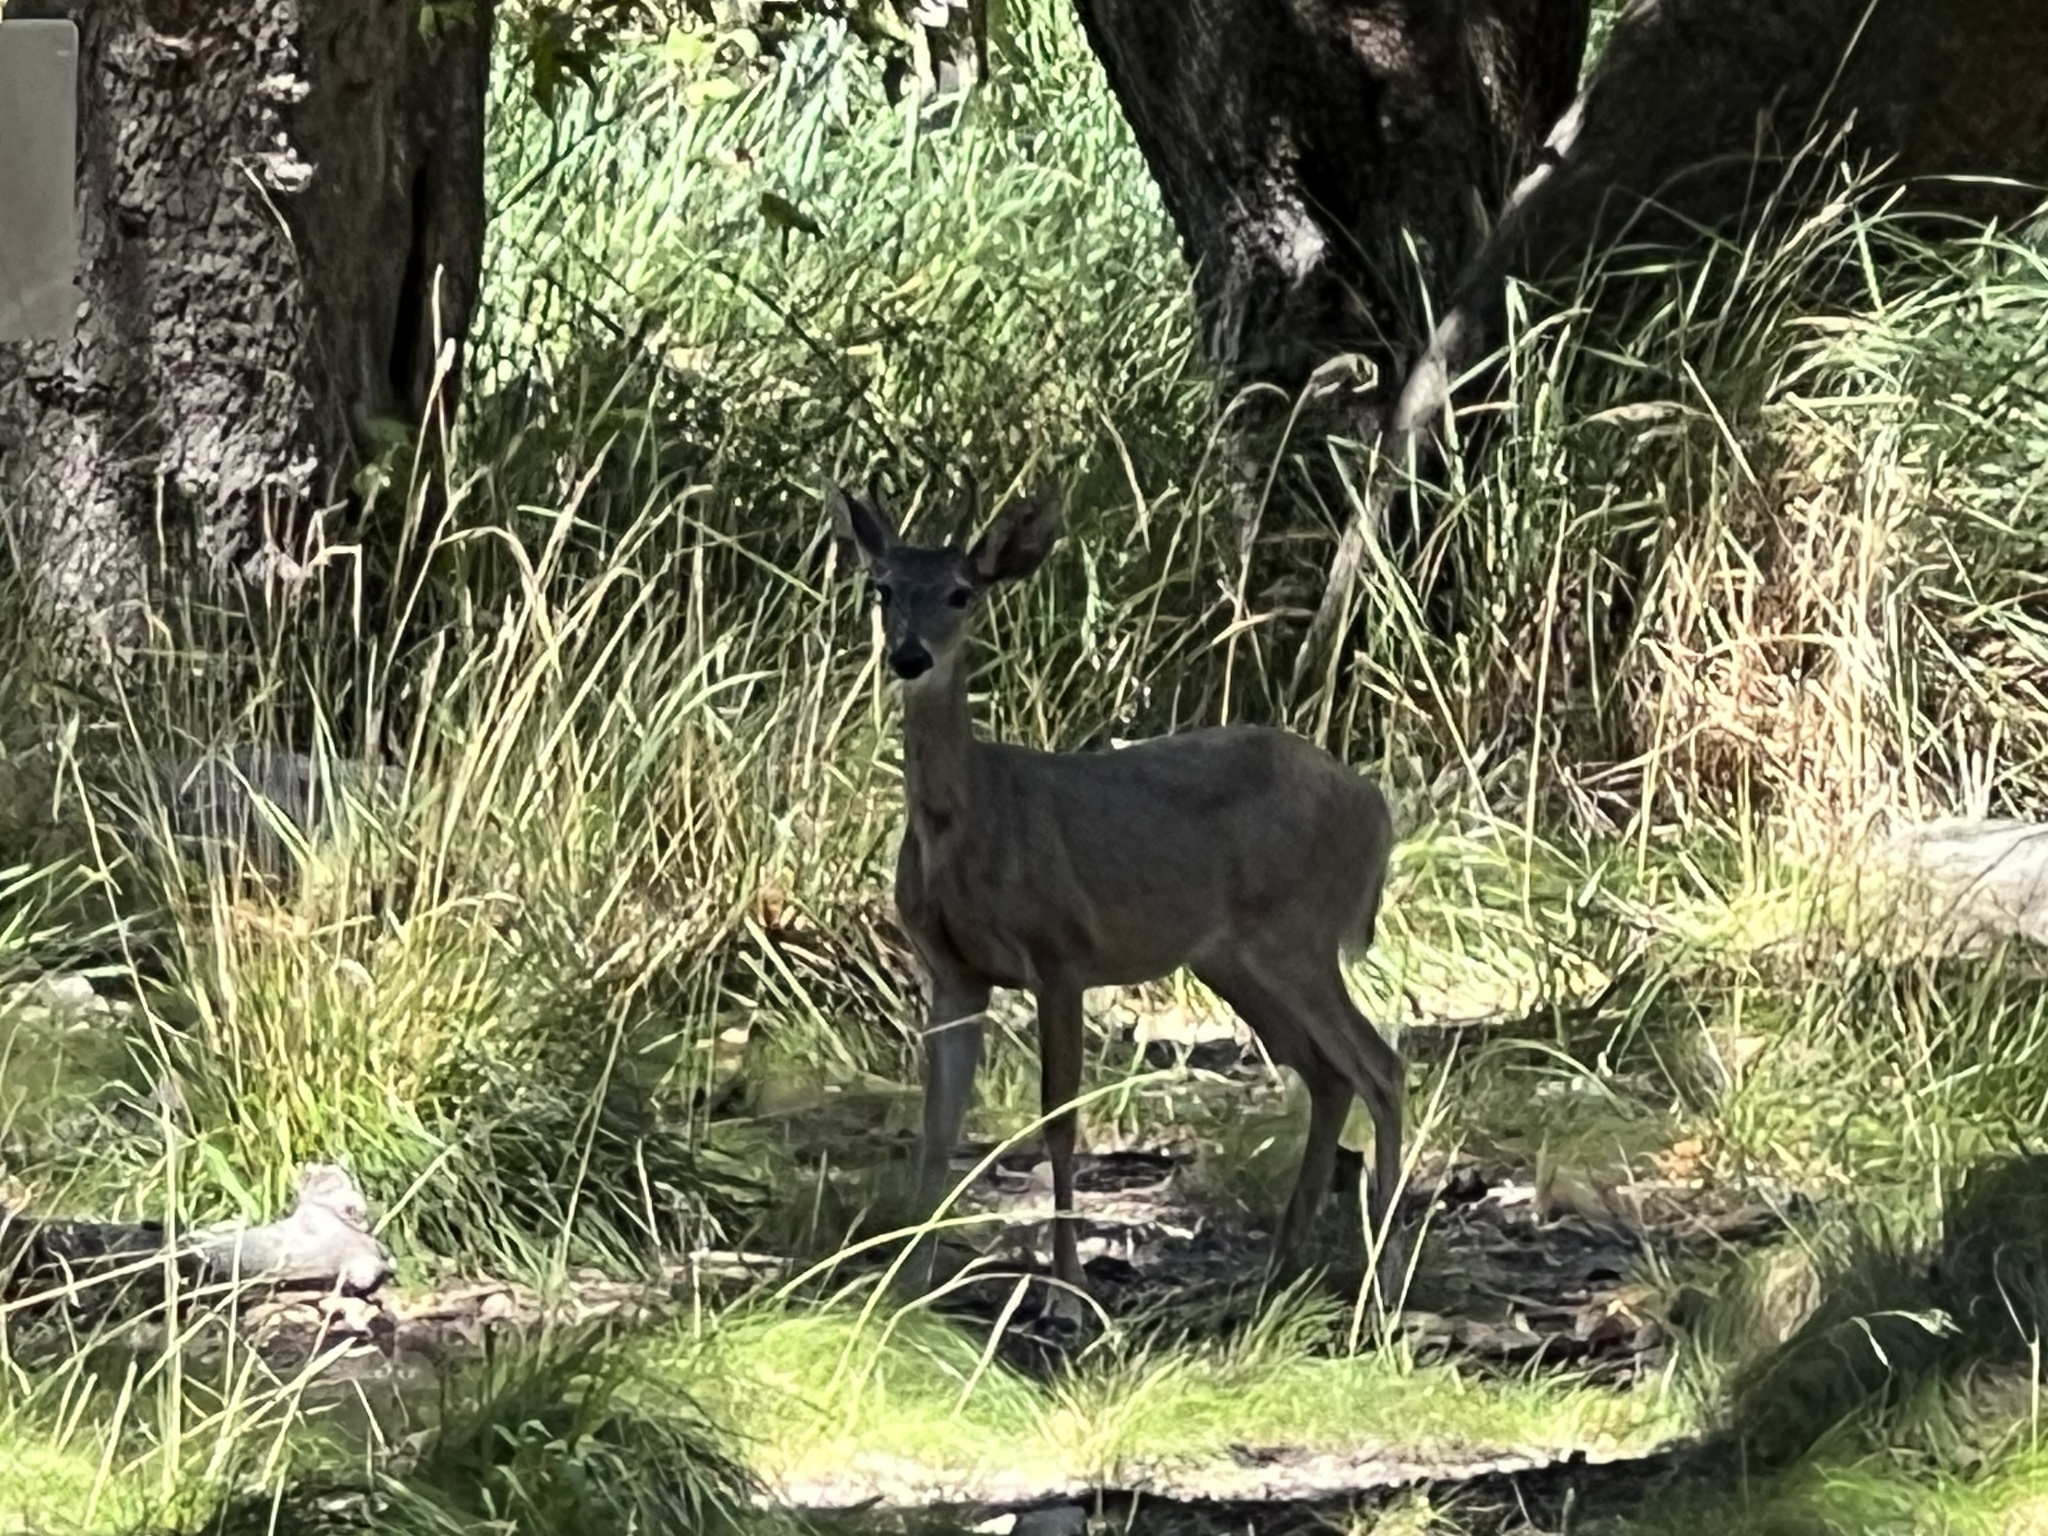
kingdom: Animalia
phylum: Chordata
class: Mammalia
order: Artiodactyla
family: Cervidae
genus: Odocoileus
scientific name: Odocoileus virginianus
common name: White-tailed deer
